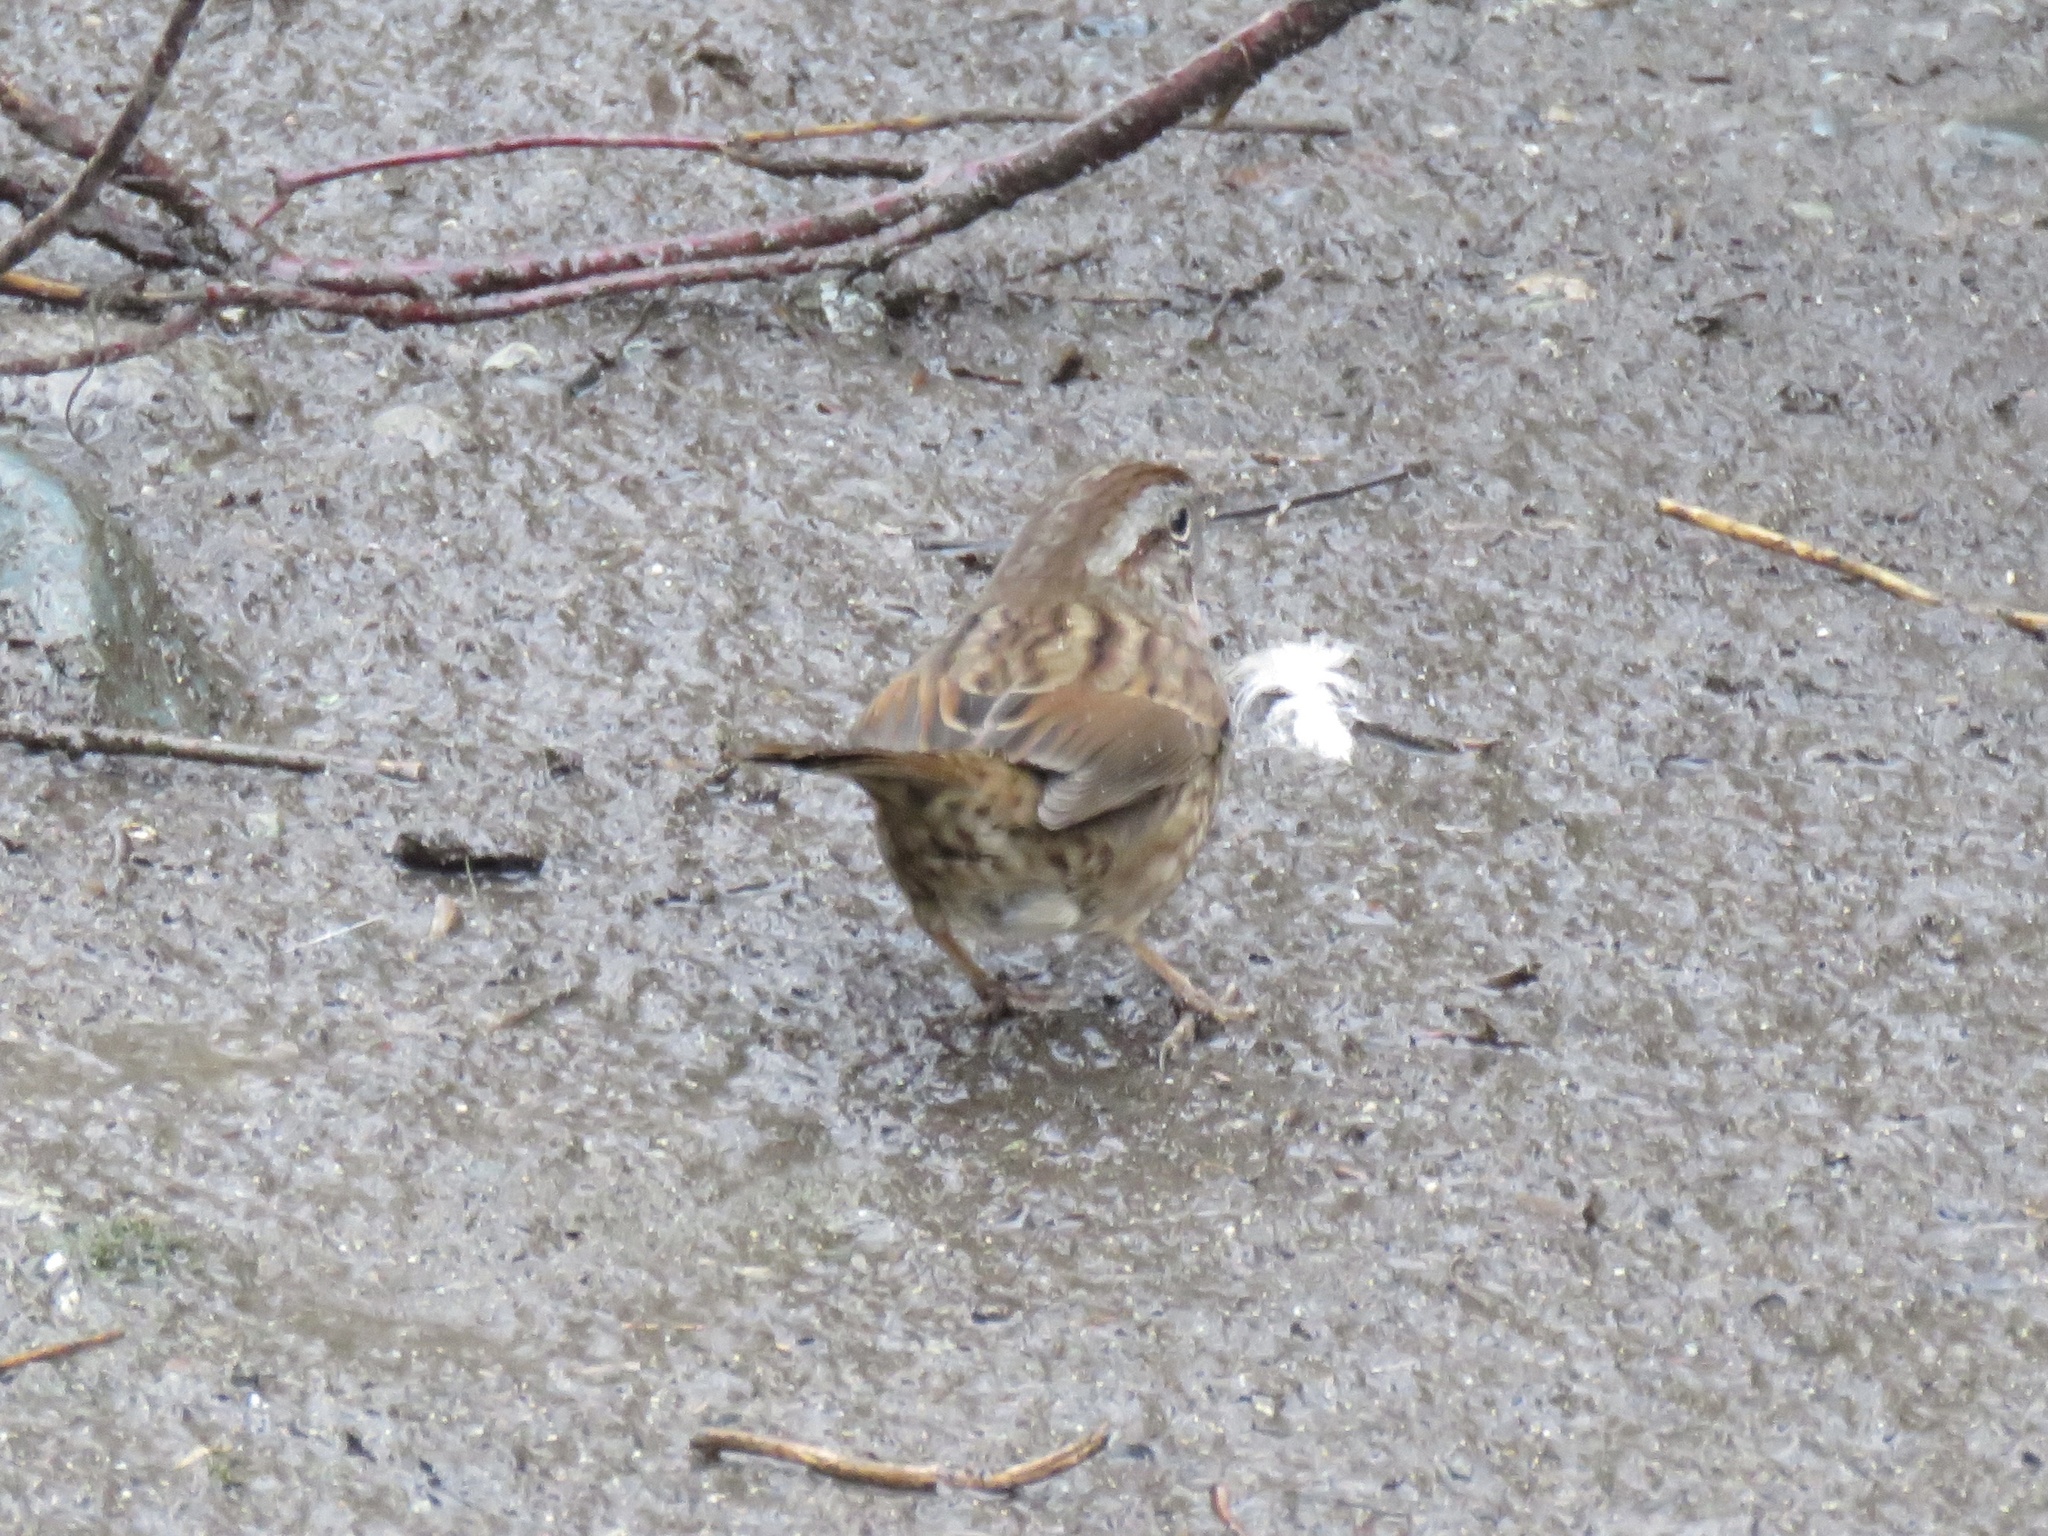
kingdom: Animalia
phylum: Chordata
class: Aves
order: Passeriformes
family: Passerellidae
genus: Melospiza
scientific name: Melospiza melodia
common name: Song sparrow
